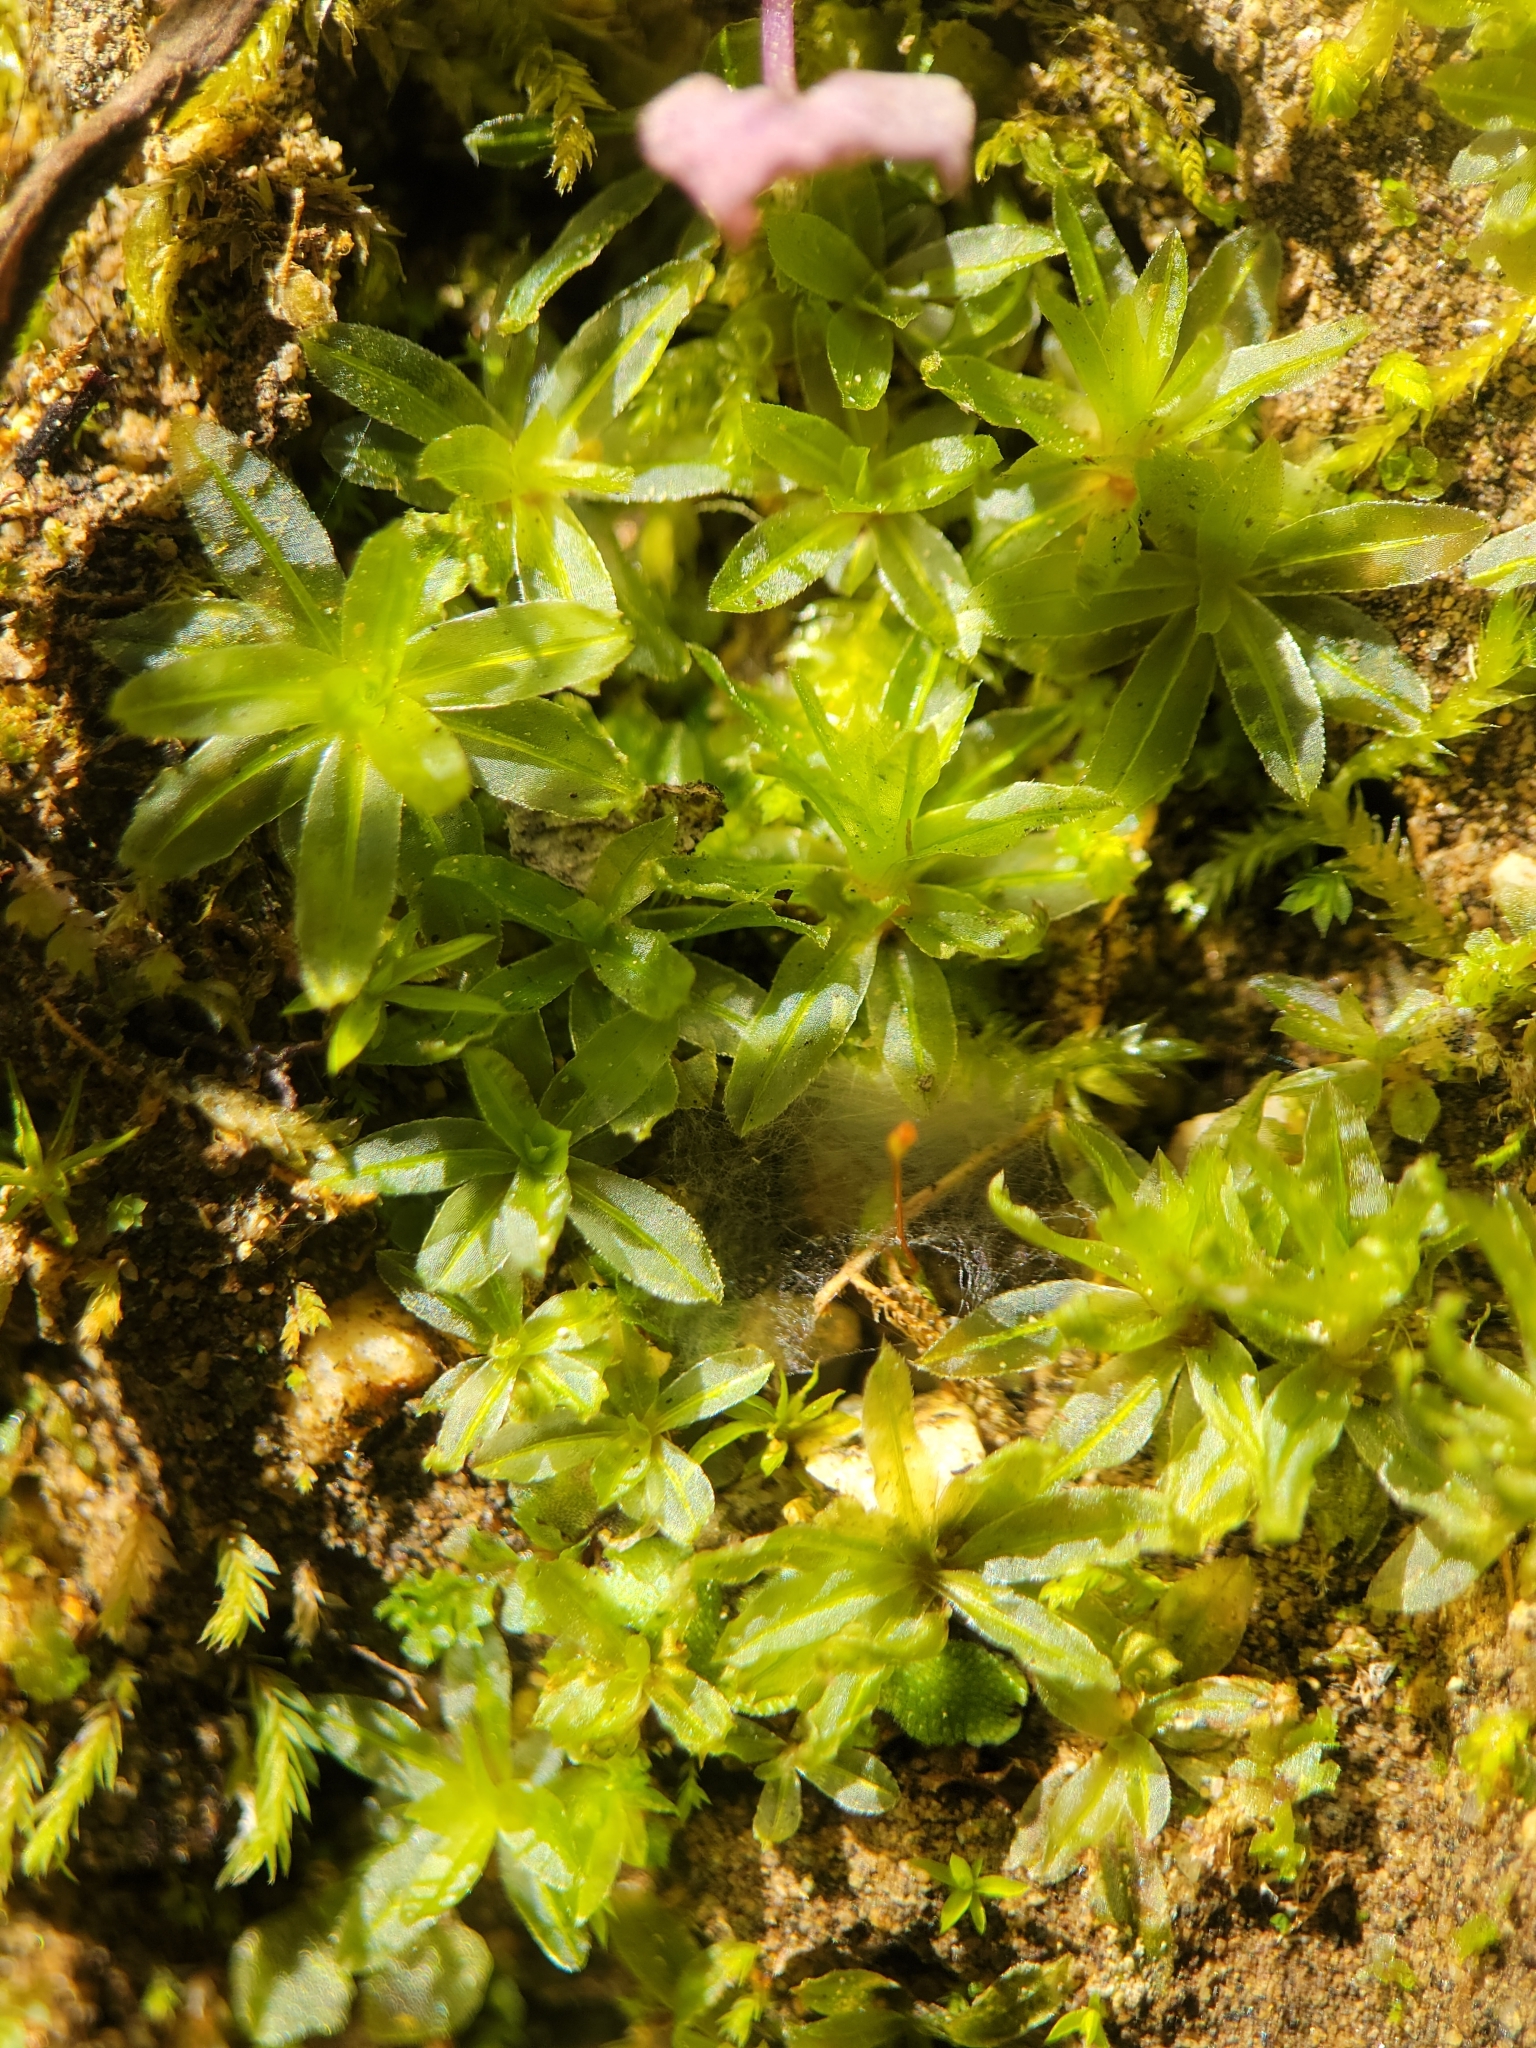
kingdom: Plantae
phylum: Bryophyta
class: Polytrichopsida
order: Polytrichales
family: Polytrichaceae
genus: Atrichum
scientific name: Atrichum selwynii
